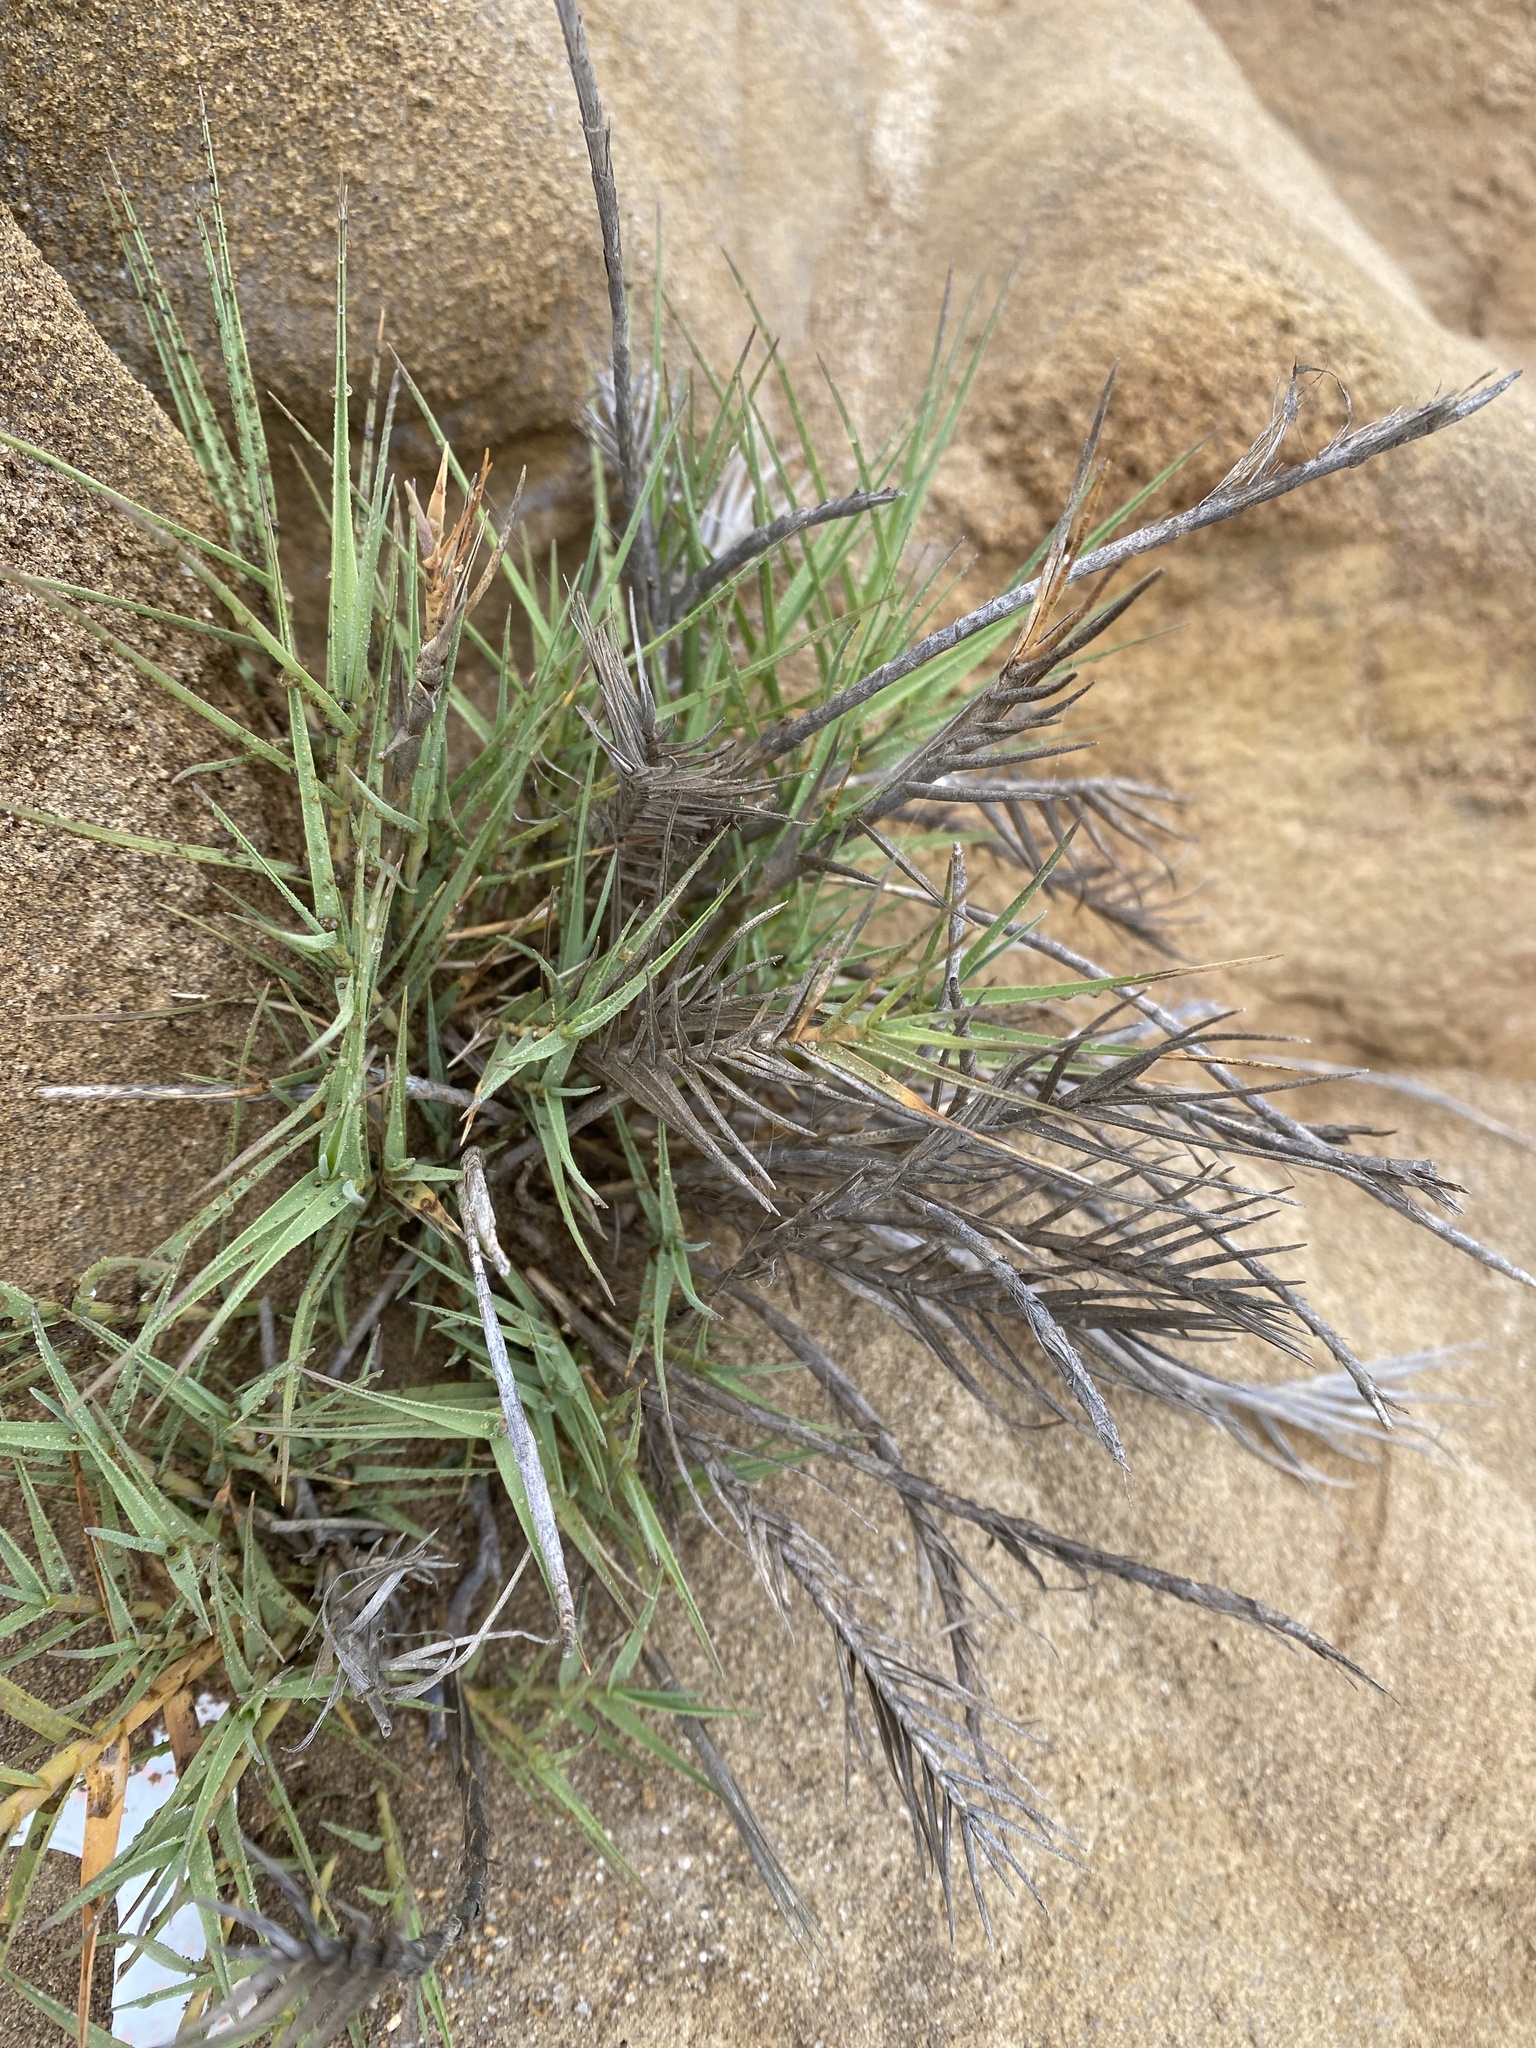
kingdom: Plantae
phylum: Tracheophyta
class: Liliopsida
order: Poales
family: Poaceae
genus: Distichlis
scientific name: Distichlis spicata
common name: Saltgrass
